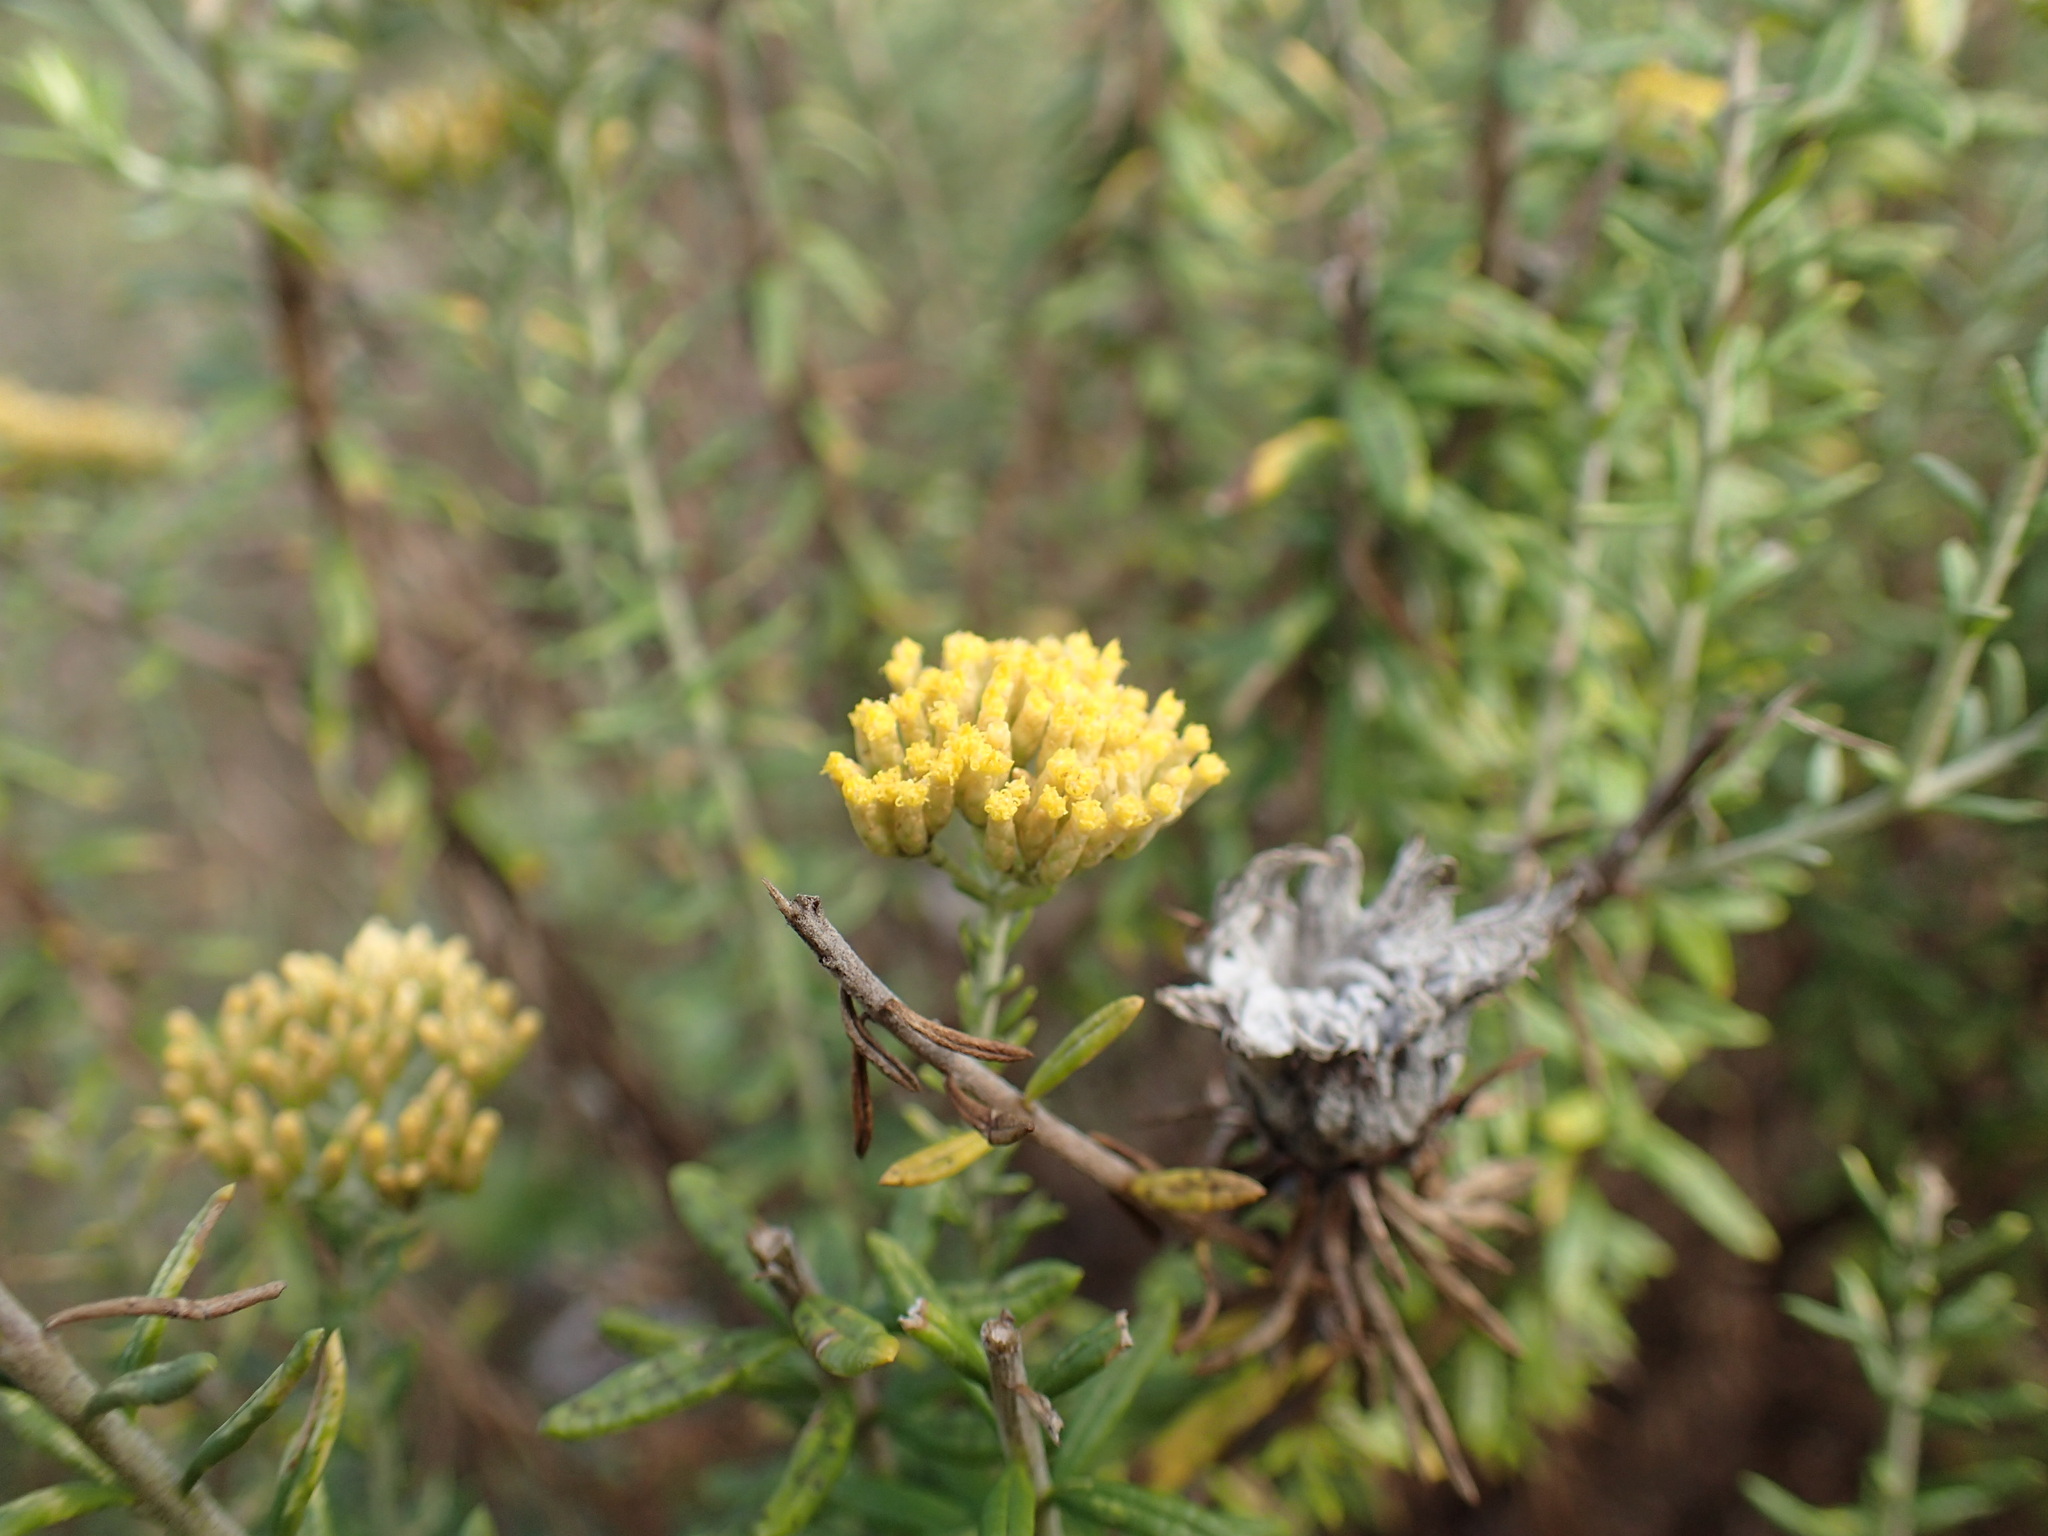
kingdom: Plantae
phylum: Tracheophyta
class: Magnoliopsida
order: Asterales
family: Asteraceae
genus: Helichrysum
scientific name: Helichrysum kraussii
